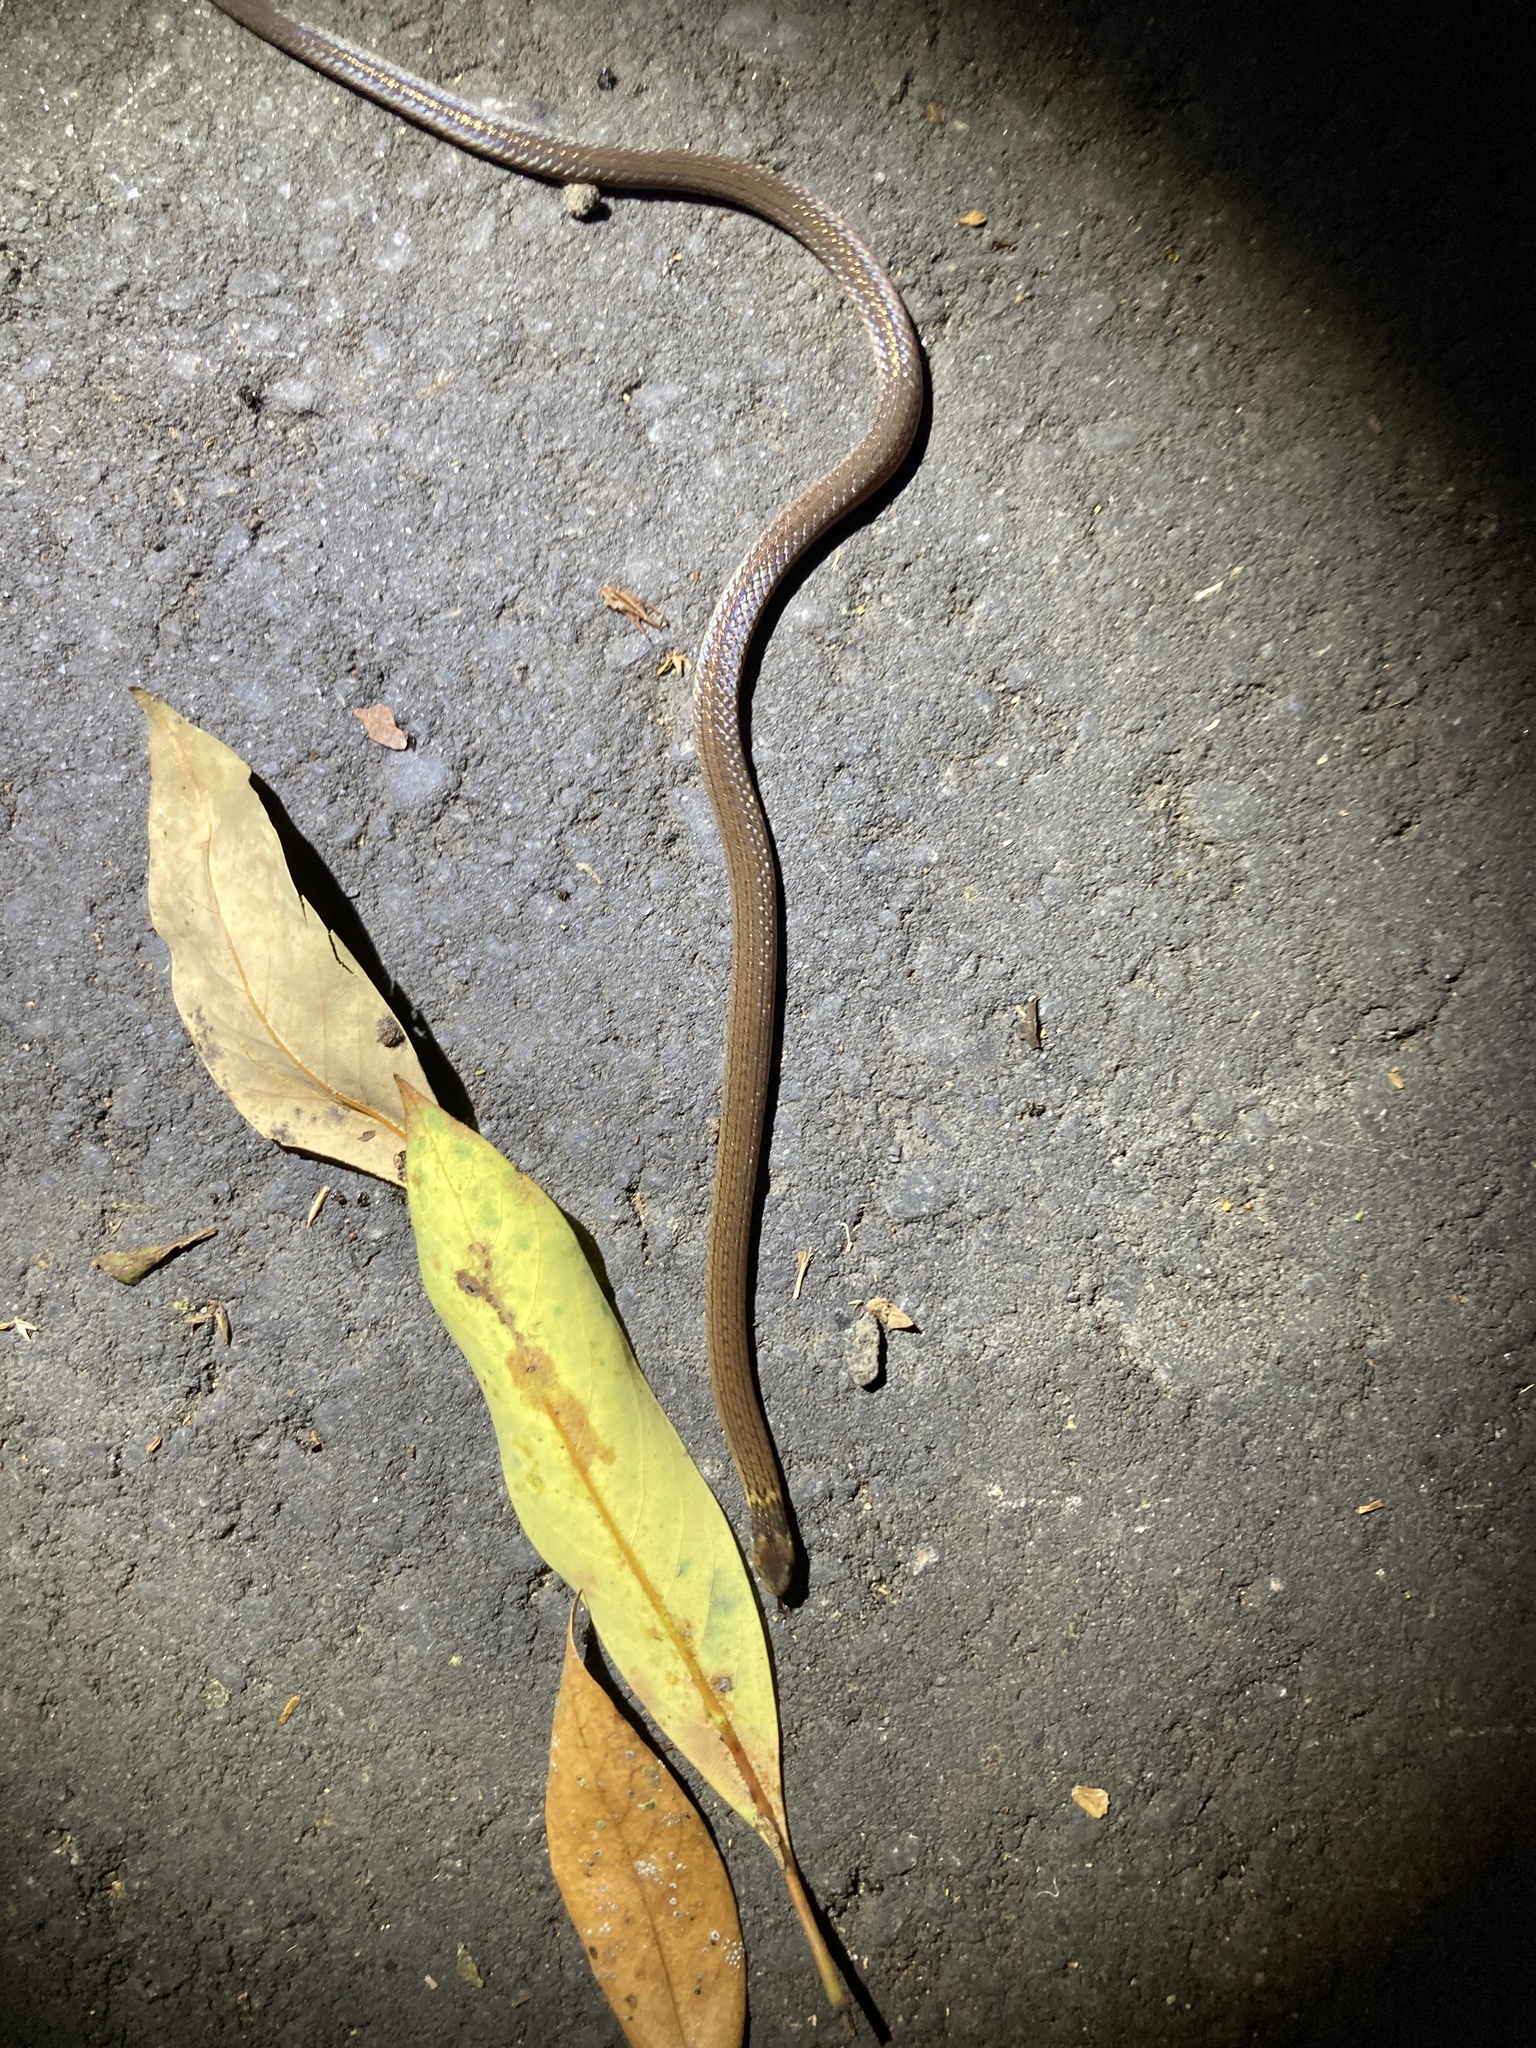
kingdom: Animalia
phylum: Chordata
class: Squamata
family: Colubridae
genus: Calamaria
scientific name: Calamaria pavimentata
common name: Collared reed snake
